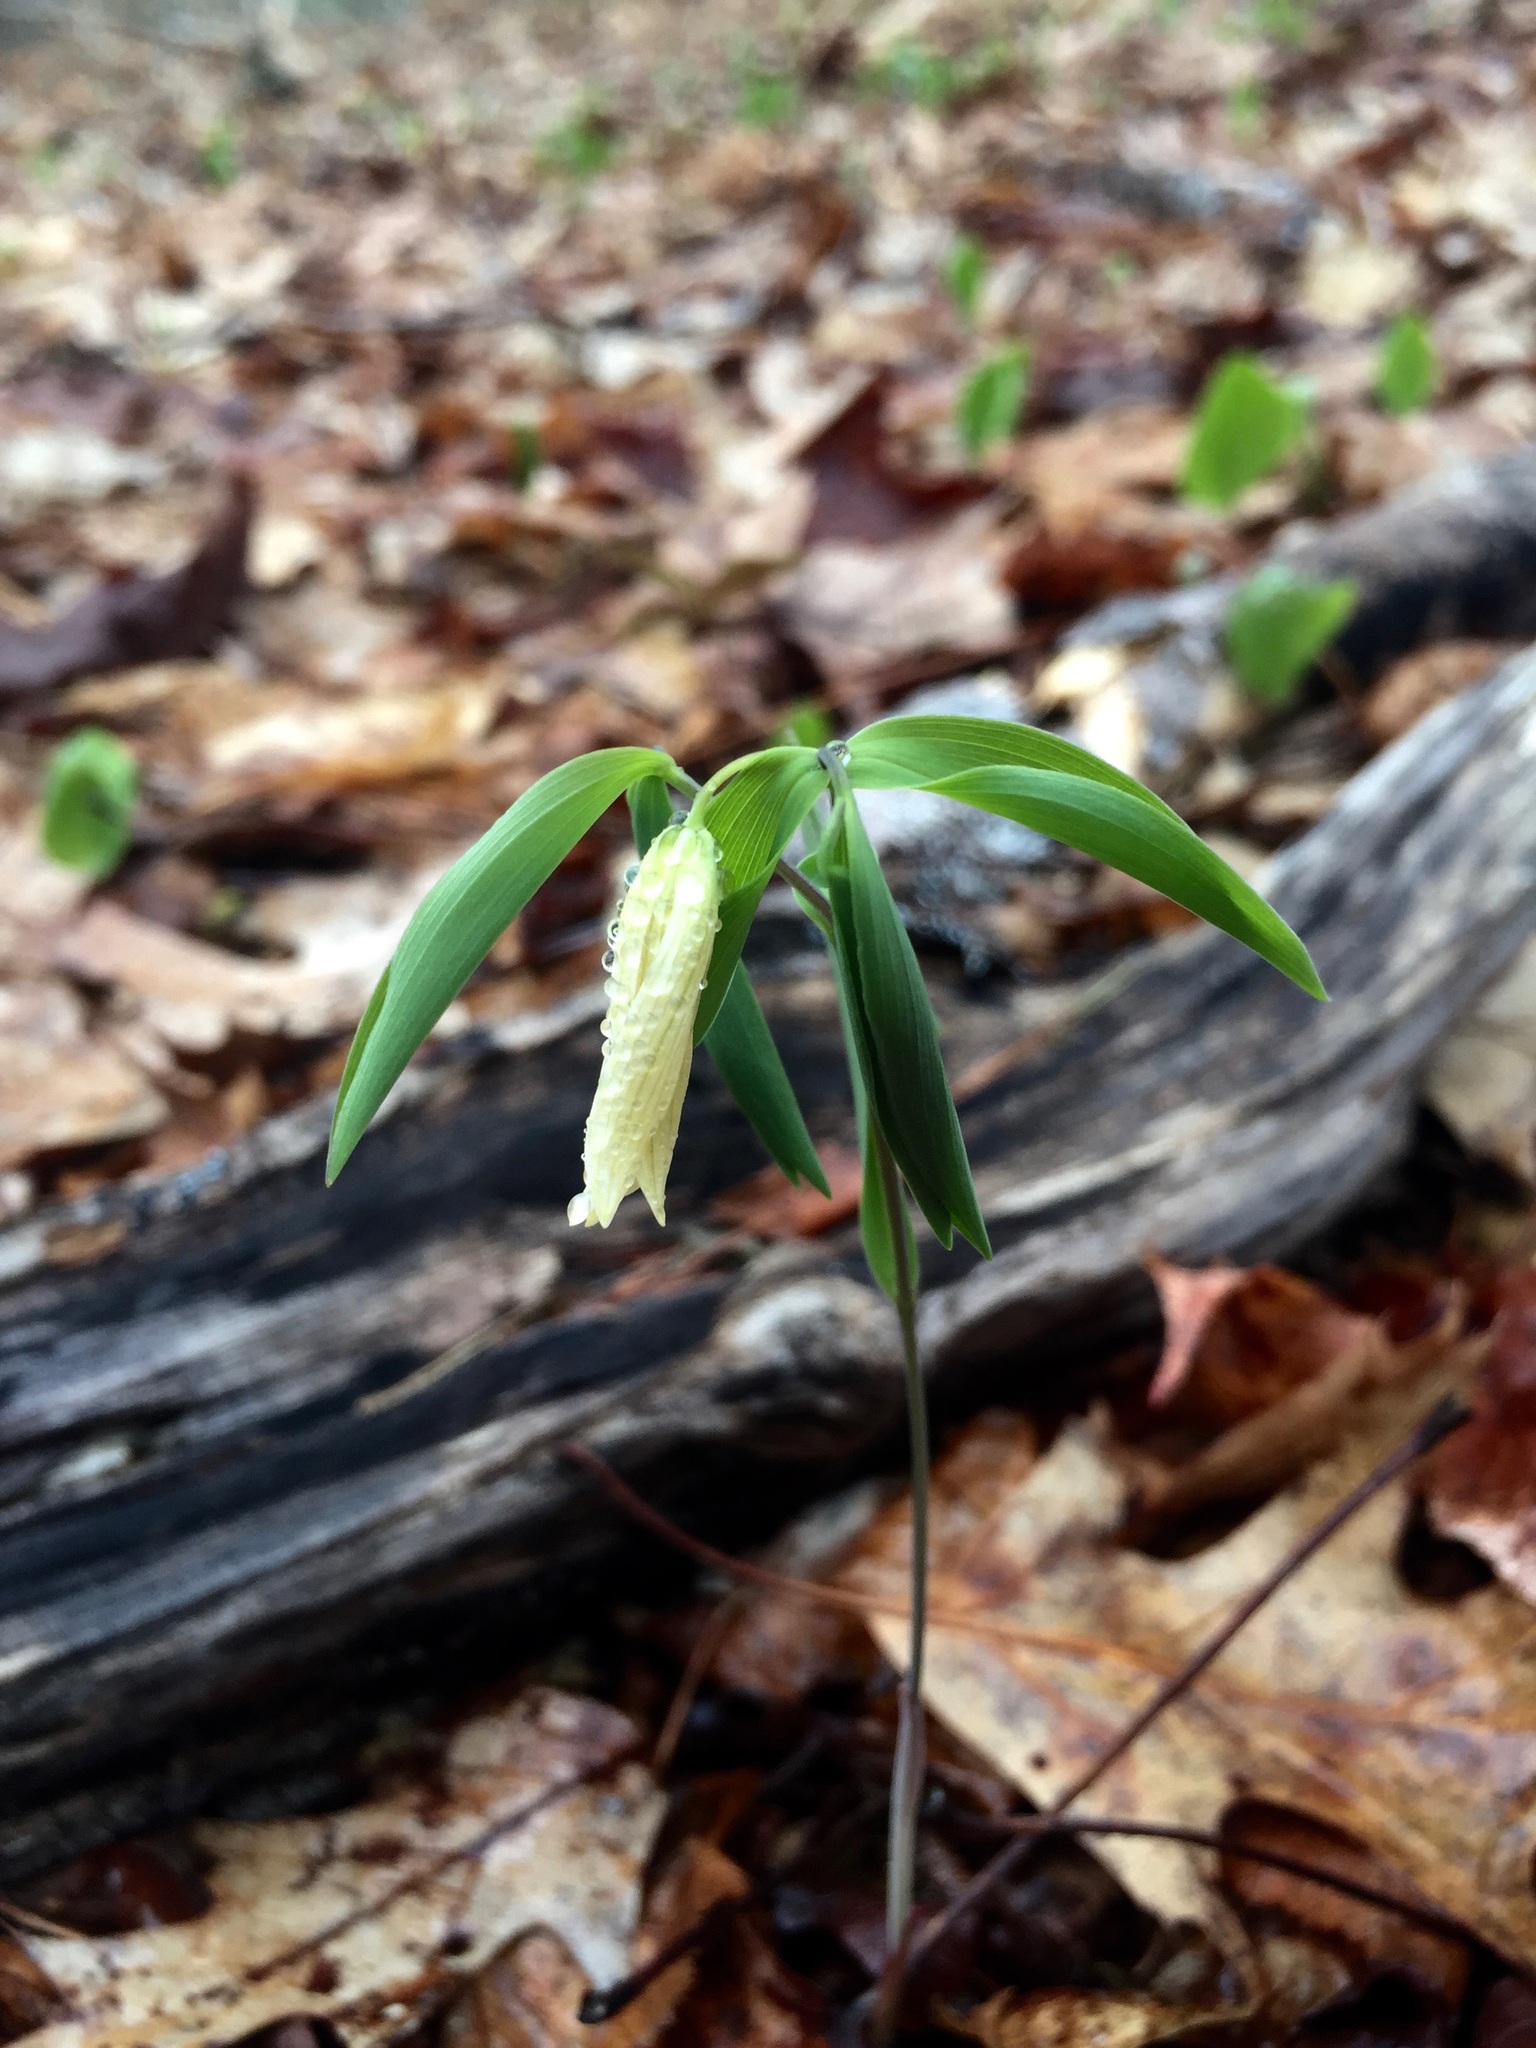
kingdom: Plantae
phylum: Tracheophyta
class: Liliopsida
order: Liliales
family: Colchicaceae
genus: Uvularia
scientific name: Uvularia sessilifolia
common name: Straw-lily
